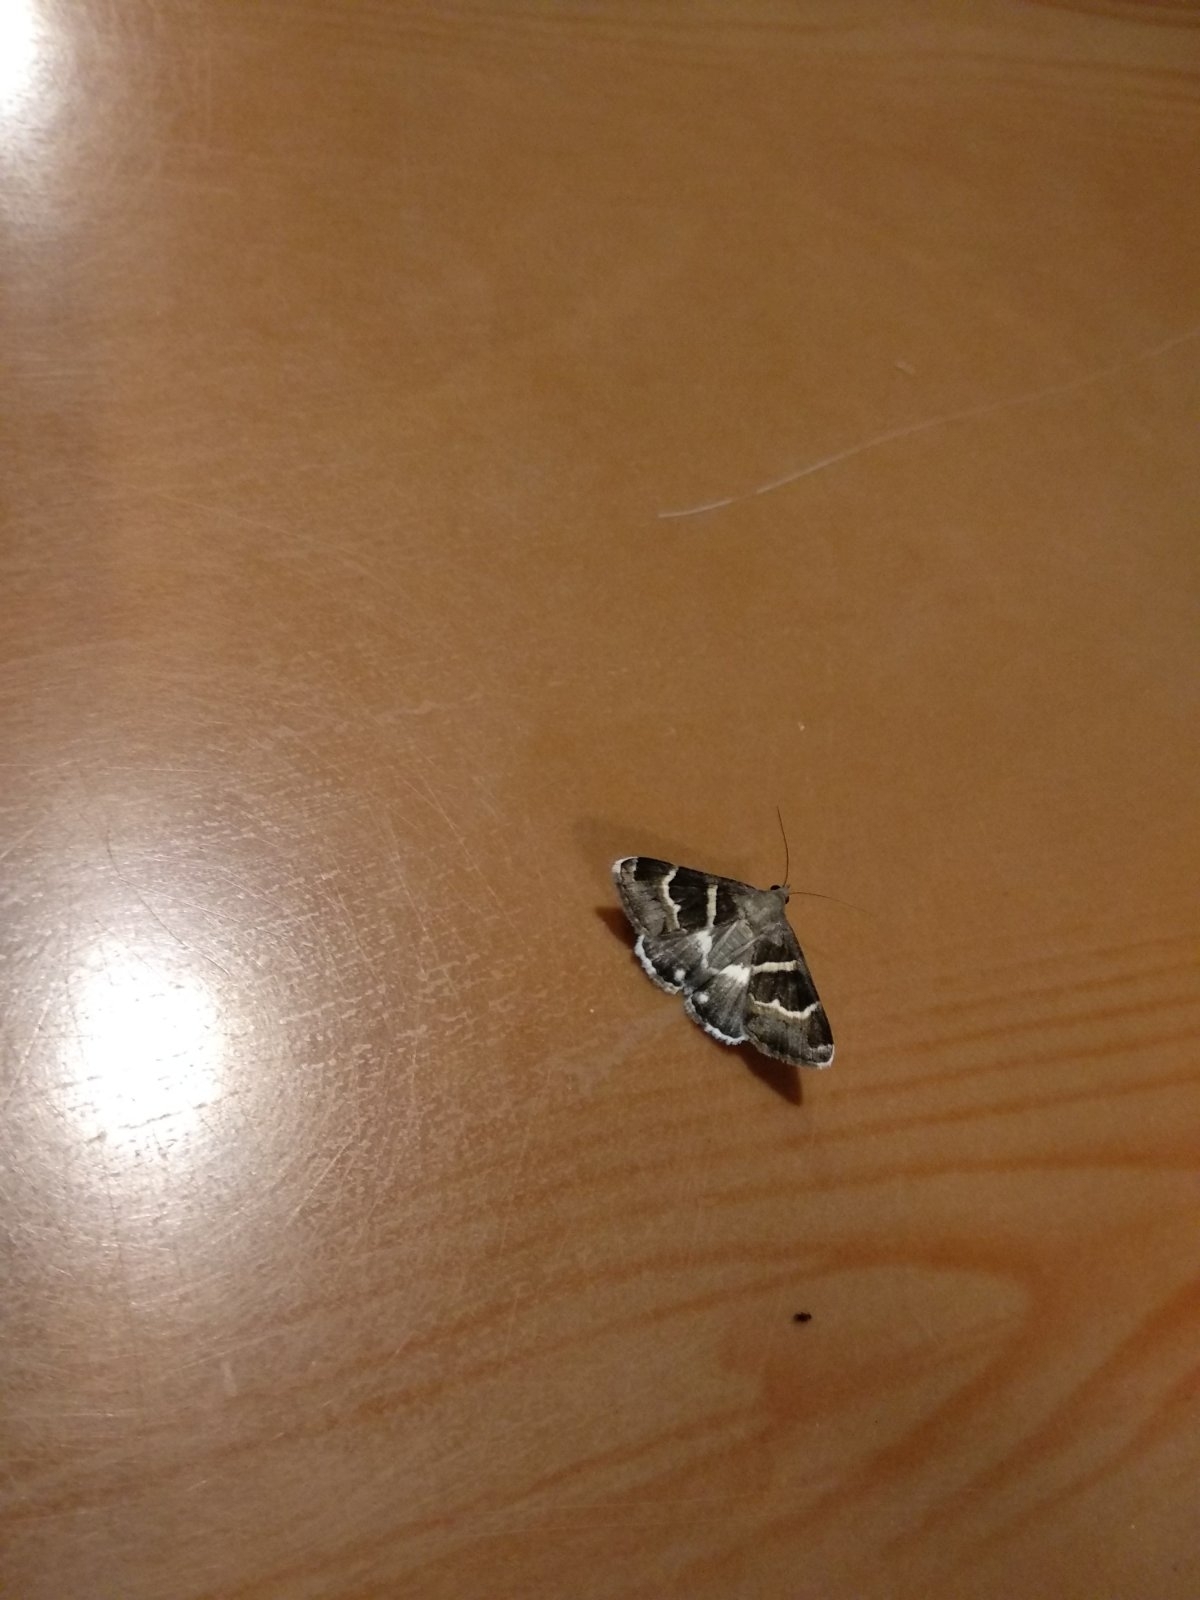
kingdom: Animalia
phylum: Arthropoda
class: Insecta
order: Lepidoptera
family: Erebidae
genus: Grammodes
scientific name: Grammodes stolida
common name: Geometrician
